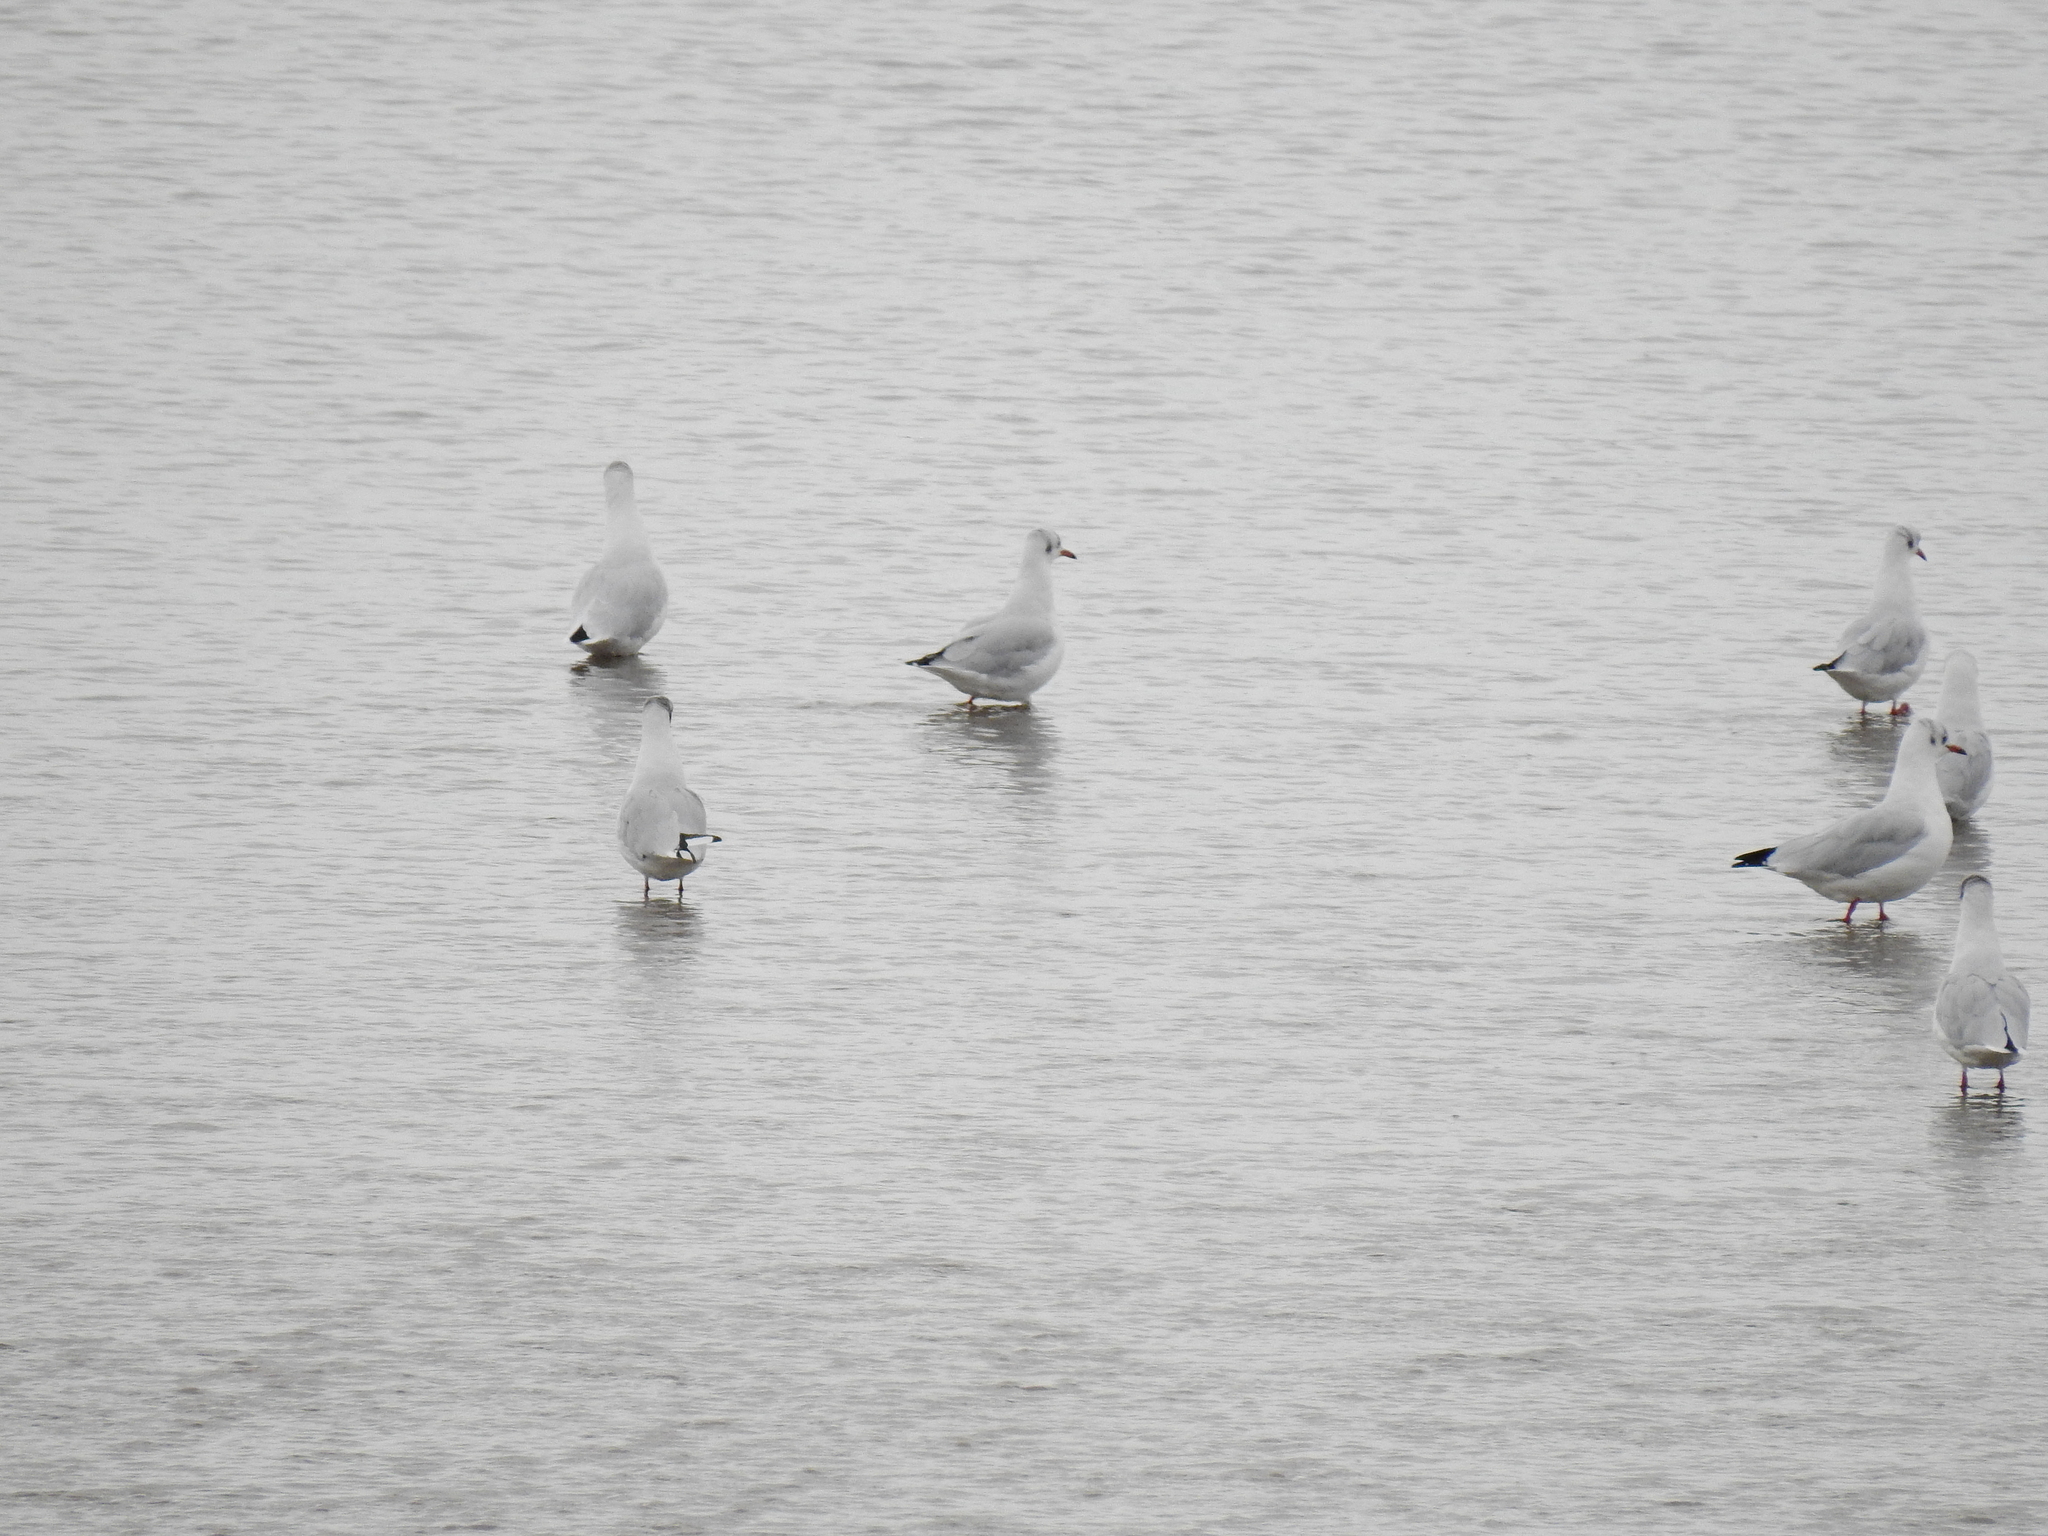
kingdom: Animalia
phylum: Chordata
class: Aves
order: Charadriiformes
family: Laridae
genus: Chroicocephalus
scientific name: Chroicocephalus ridibundus
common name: Black-headed gull
